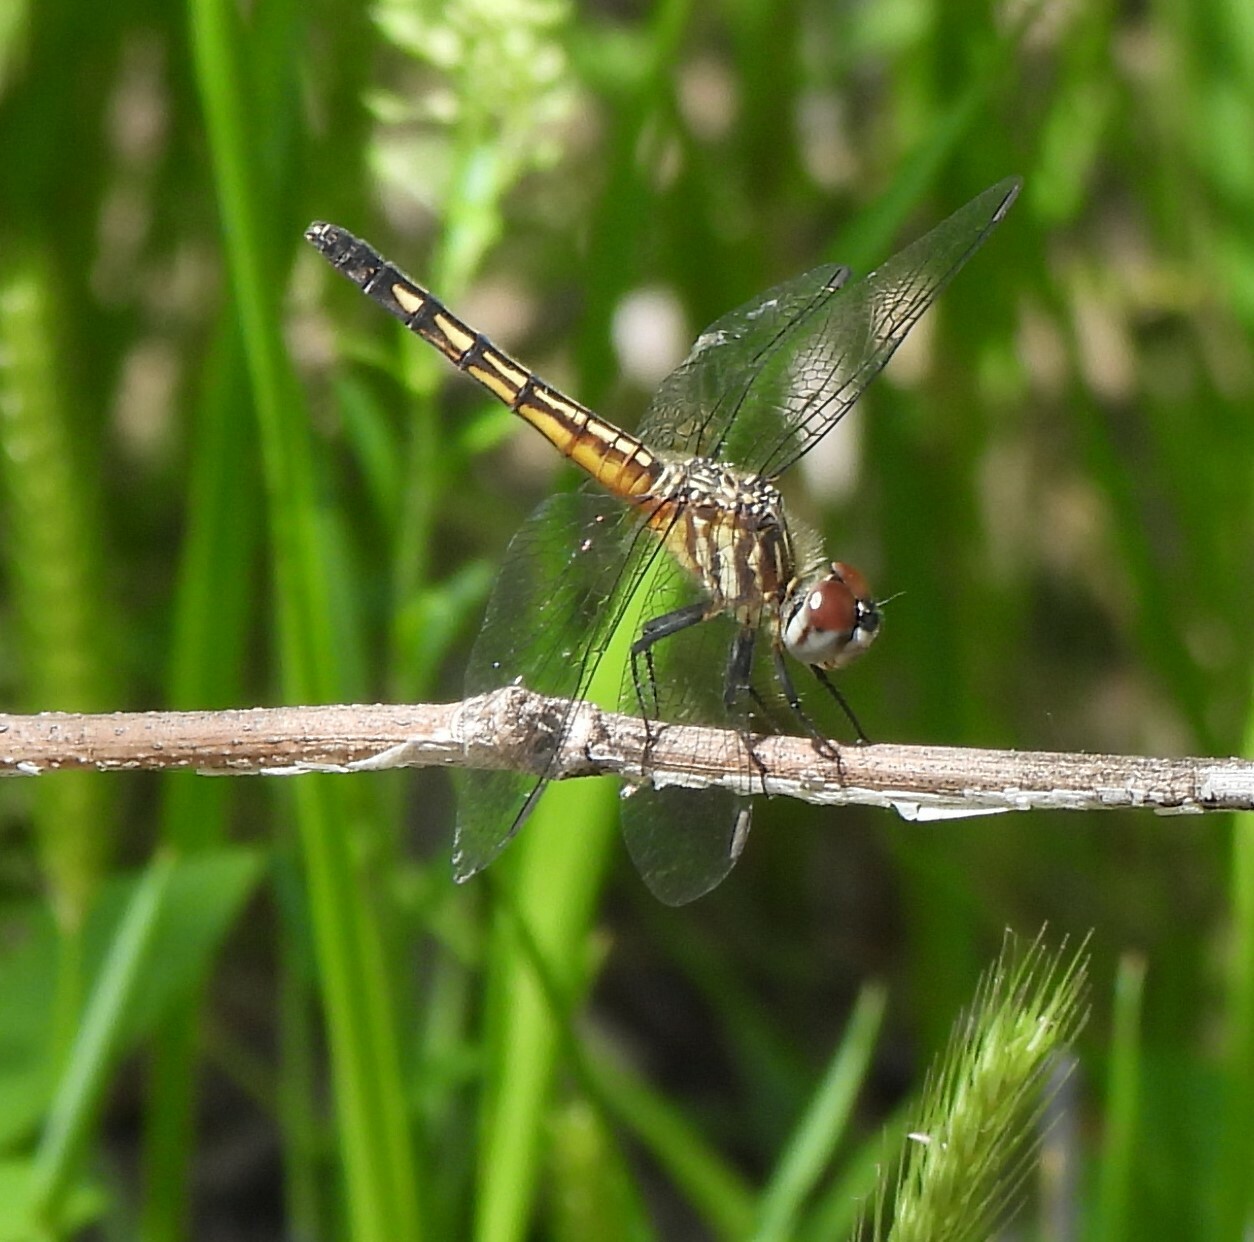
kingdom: Animalia
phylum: Arthropoda
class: Insecta
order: Odonata
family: Libellulidae
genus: Pachydiplax
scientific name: Pachydiplax longipennis
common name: Blue dasher
